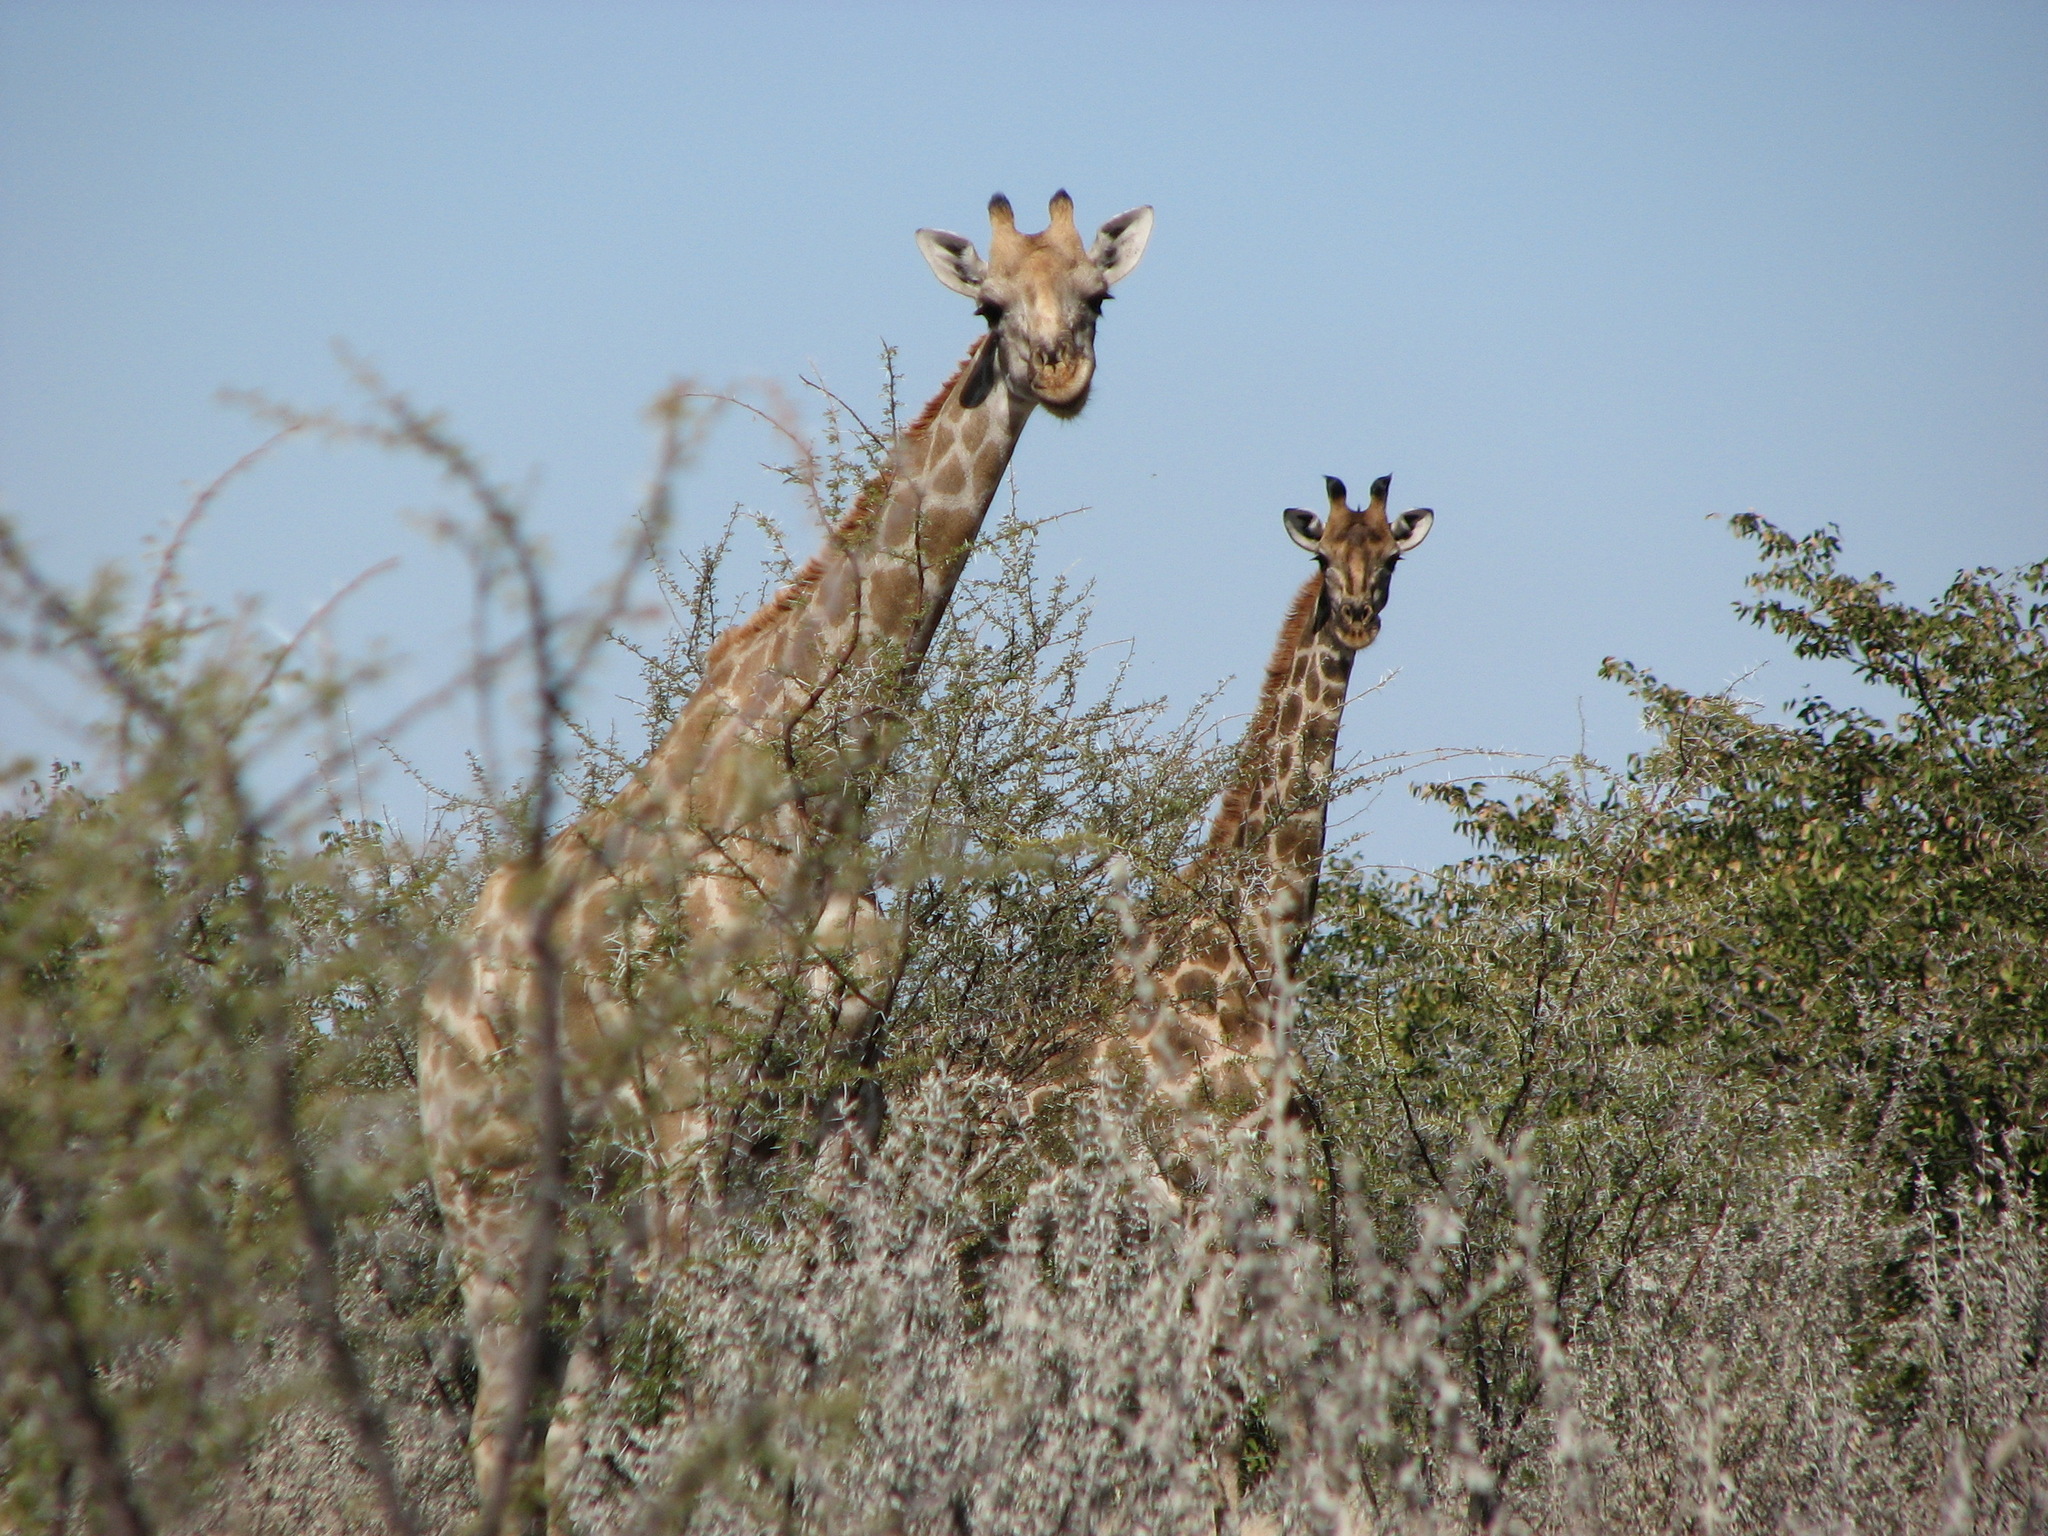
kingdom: Animalia
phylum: Chordata
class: Mammalia
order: Artiodactyla
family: Giraffidae
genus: Giraffa
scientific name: Giraffa giraffa
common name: Southern giraffe
